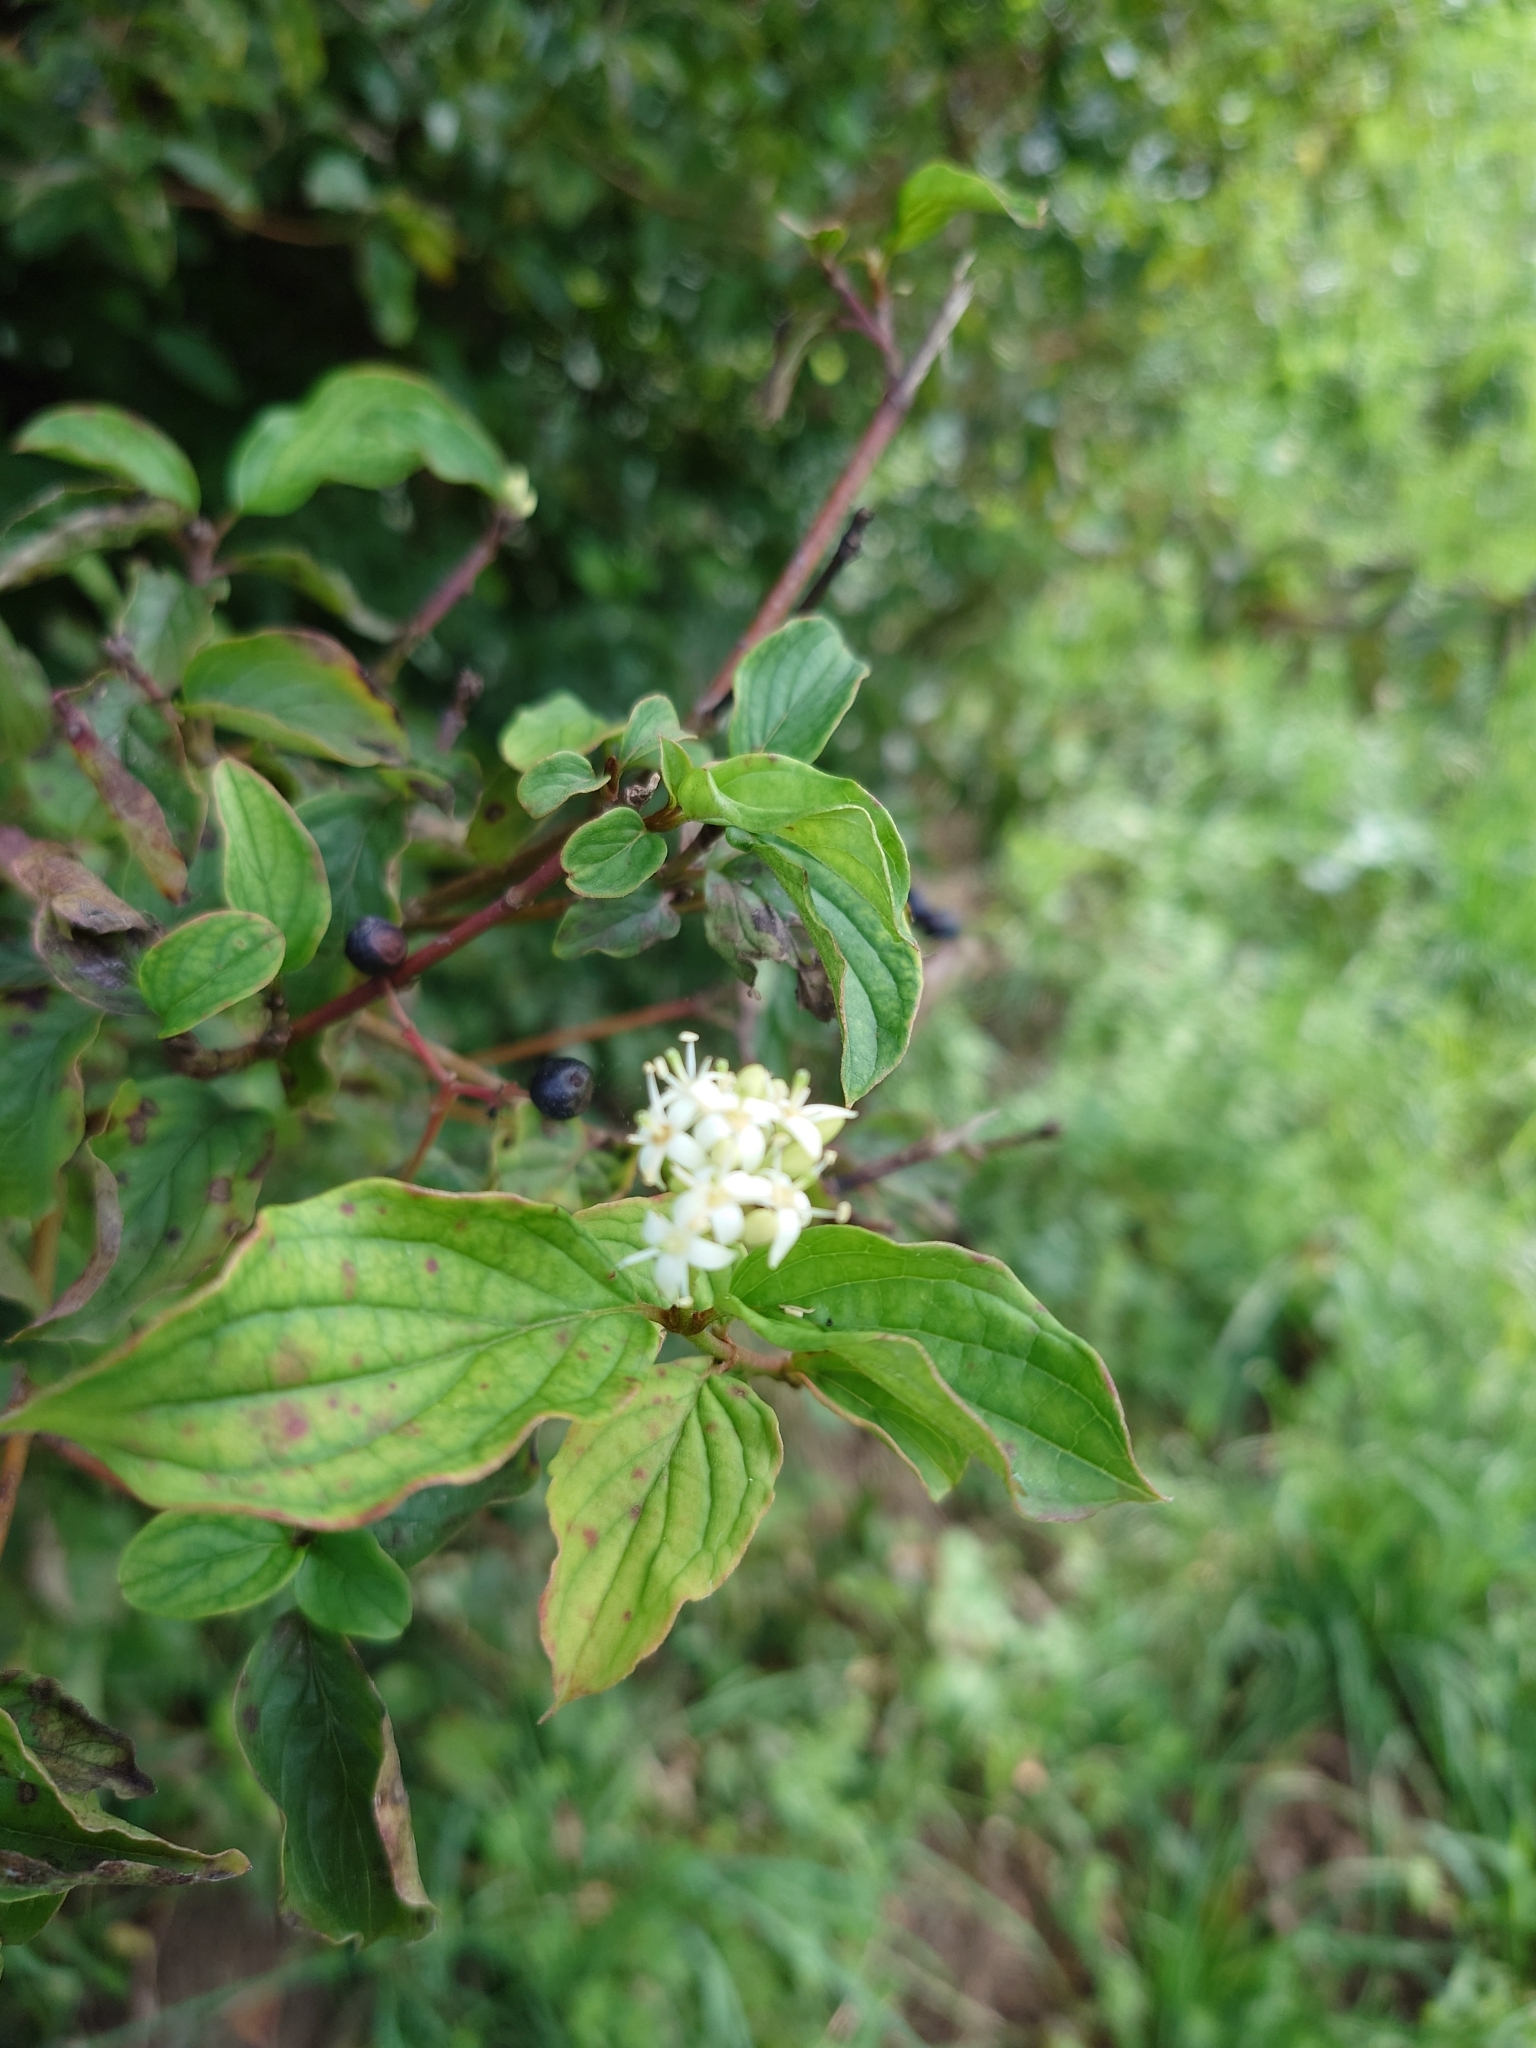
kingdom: Plantae
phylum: Tracheophyta
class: Magnoliopsida
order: Cornales
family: Cornaceae
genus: Cornus
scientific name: Cornus sanguinea
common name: Dogwood
